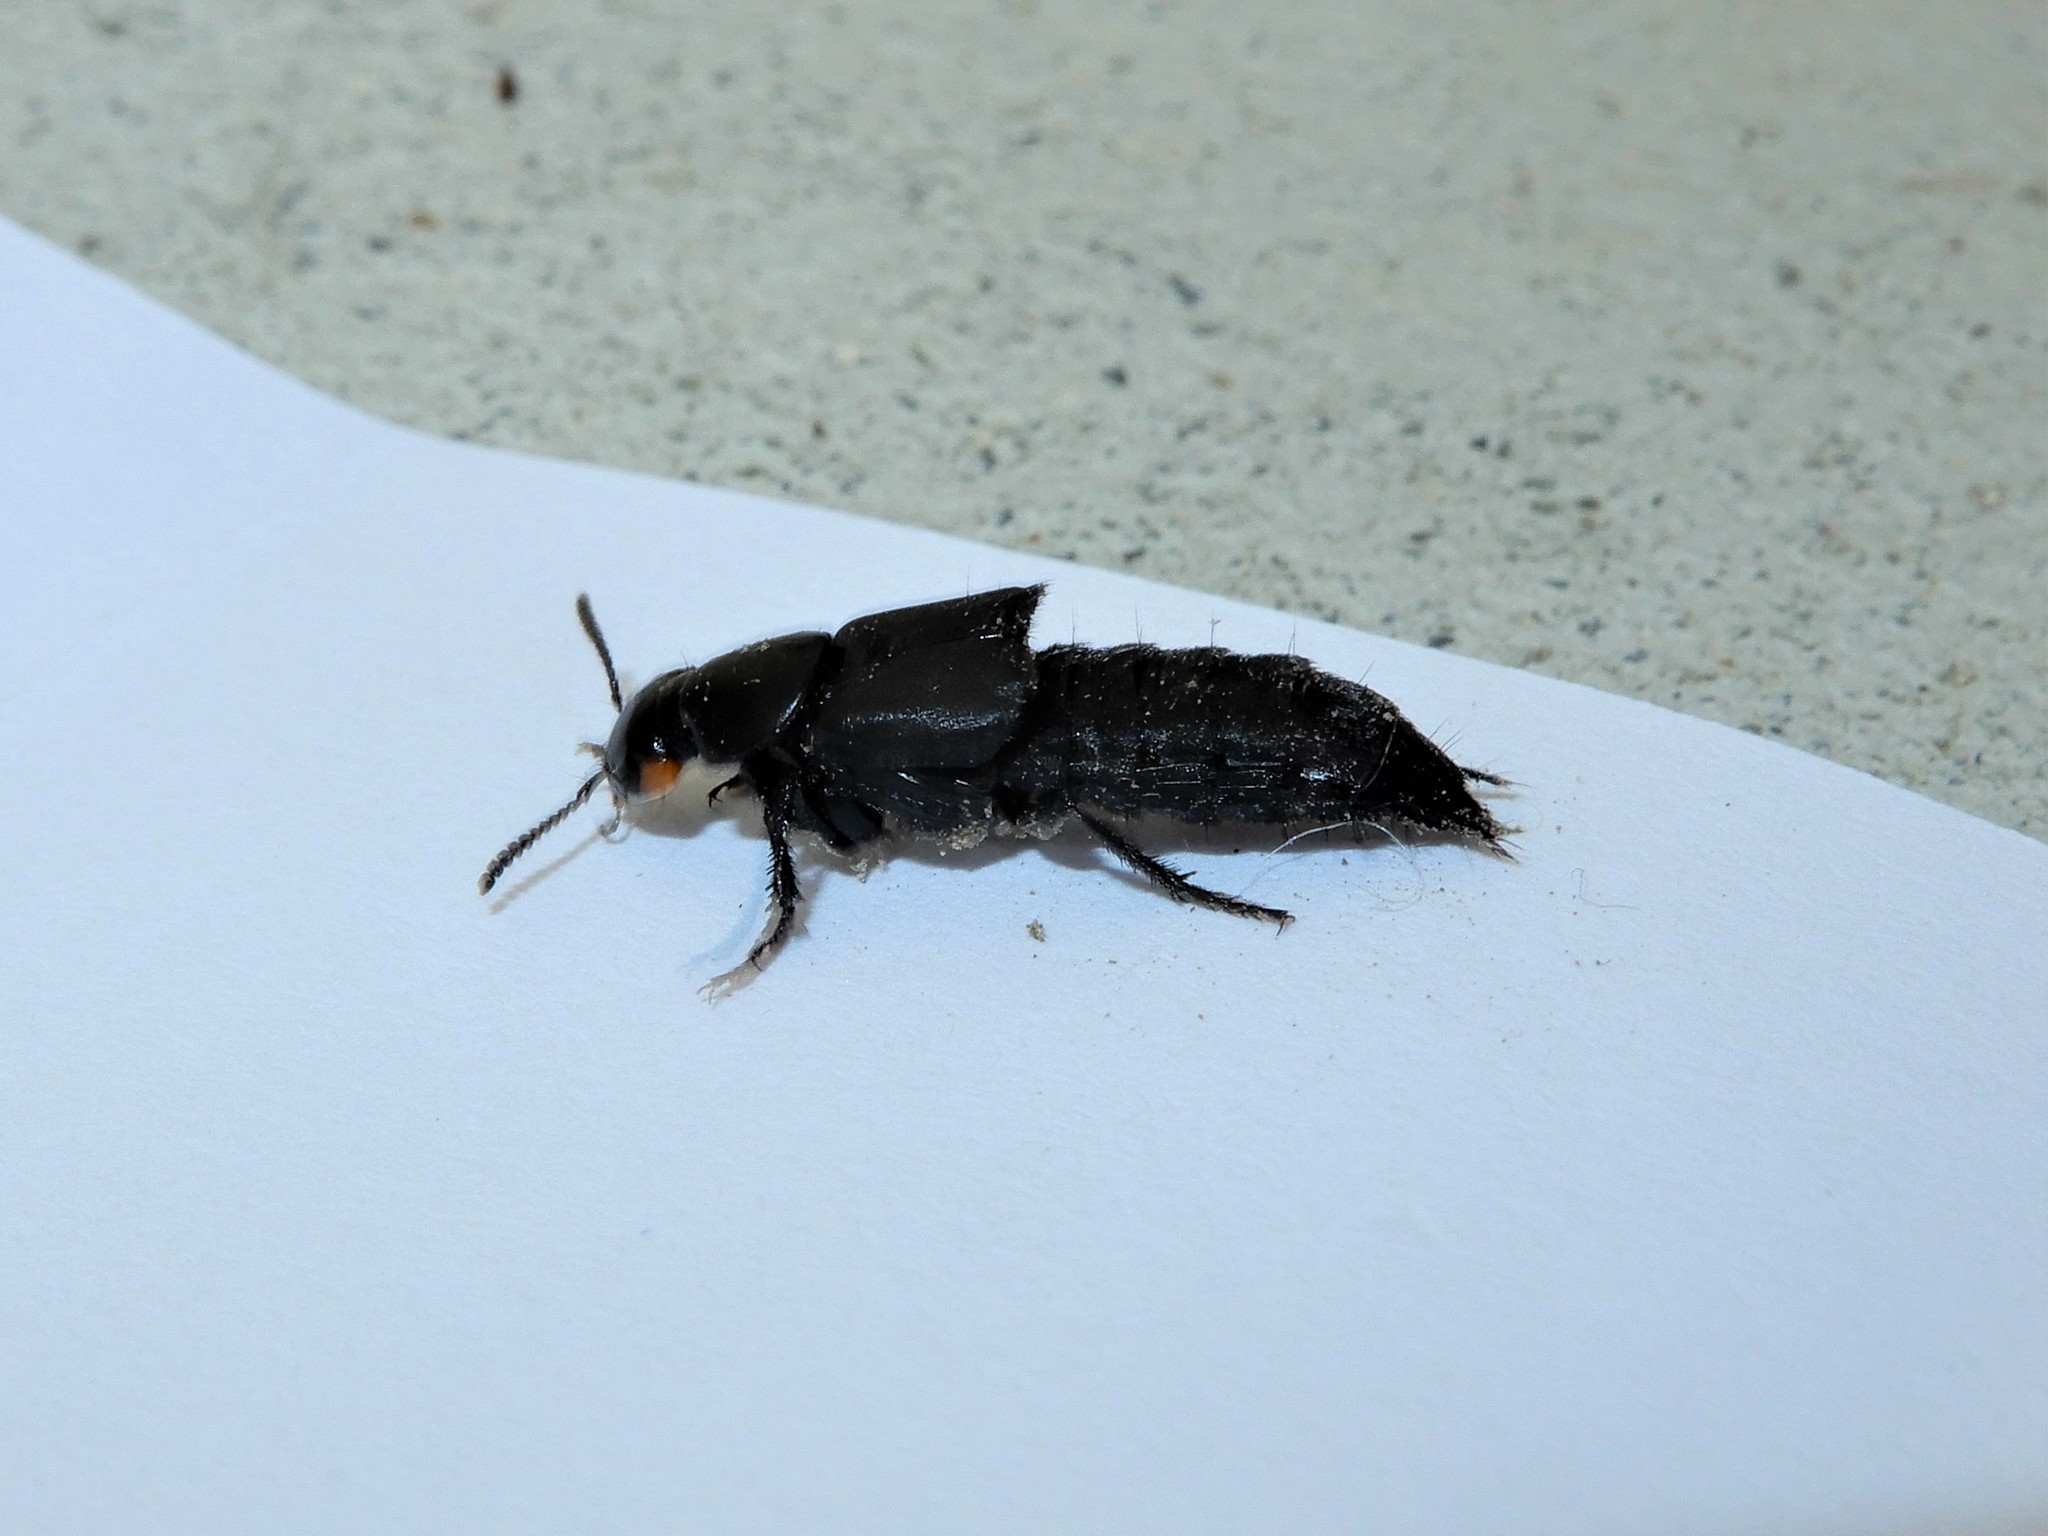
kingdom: Animalia
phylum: Arthropoda
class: Insecta
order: Coleoptera
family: Staphylinidae
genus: Creophilus
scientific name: Creophilus oculatus
